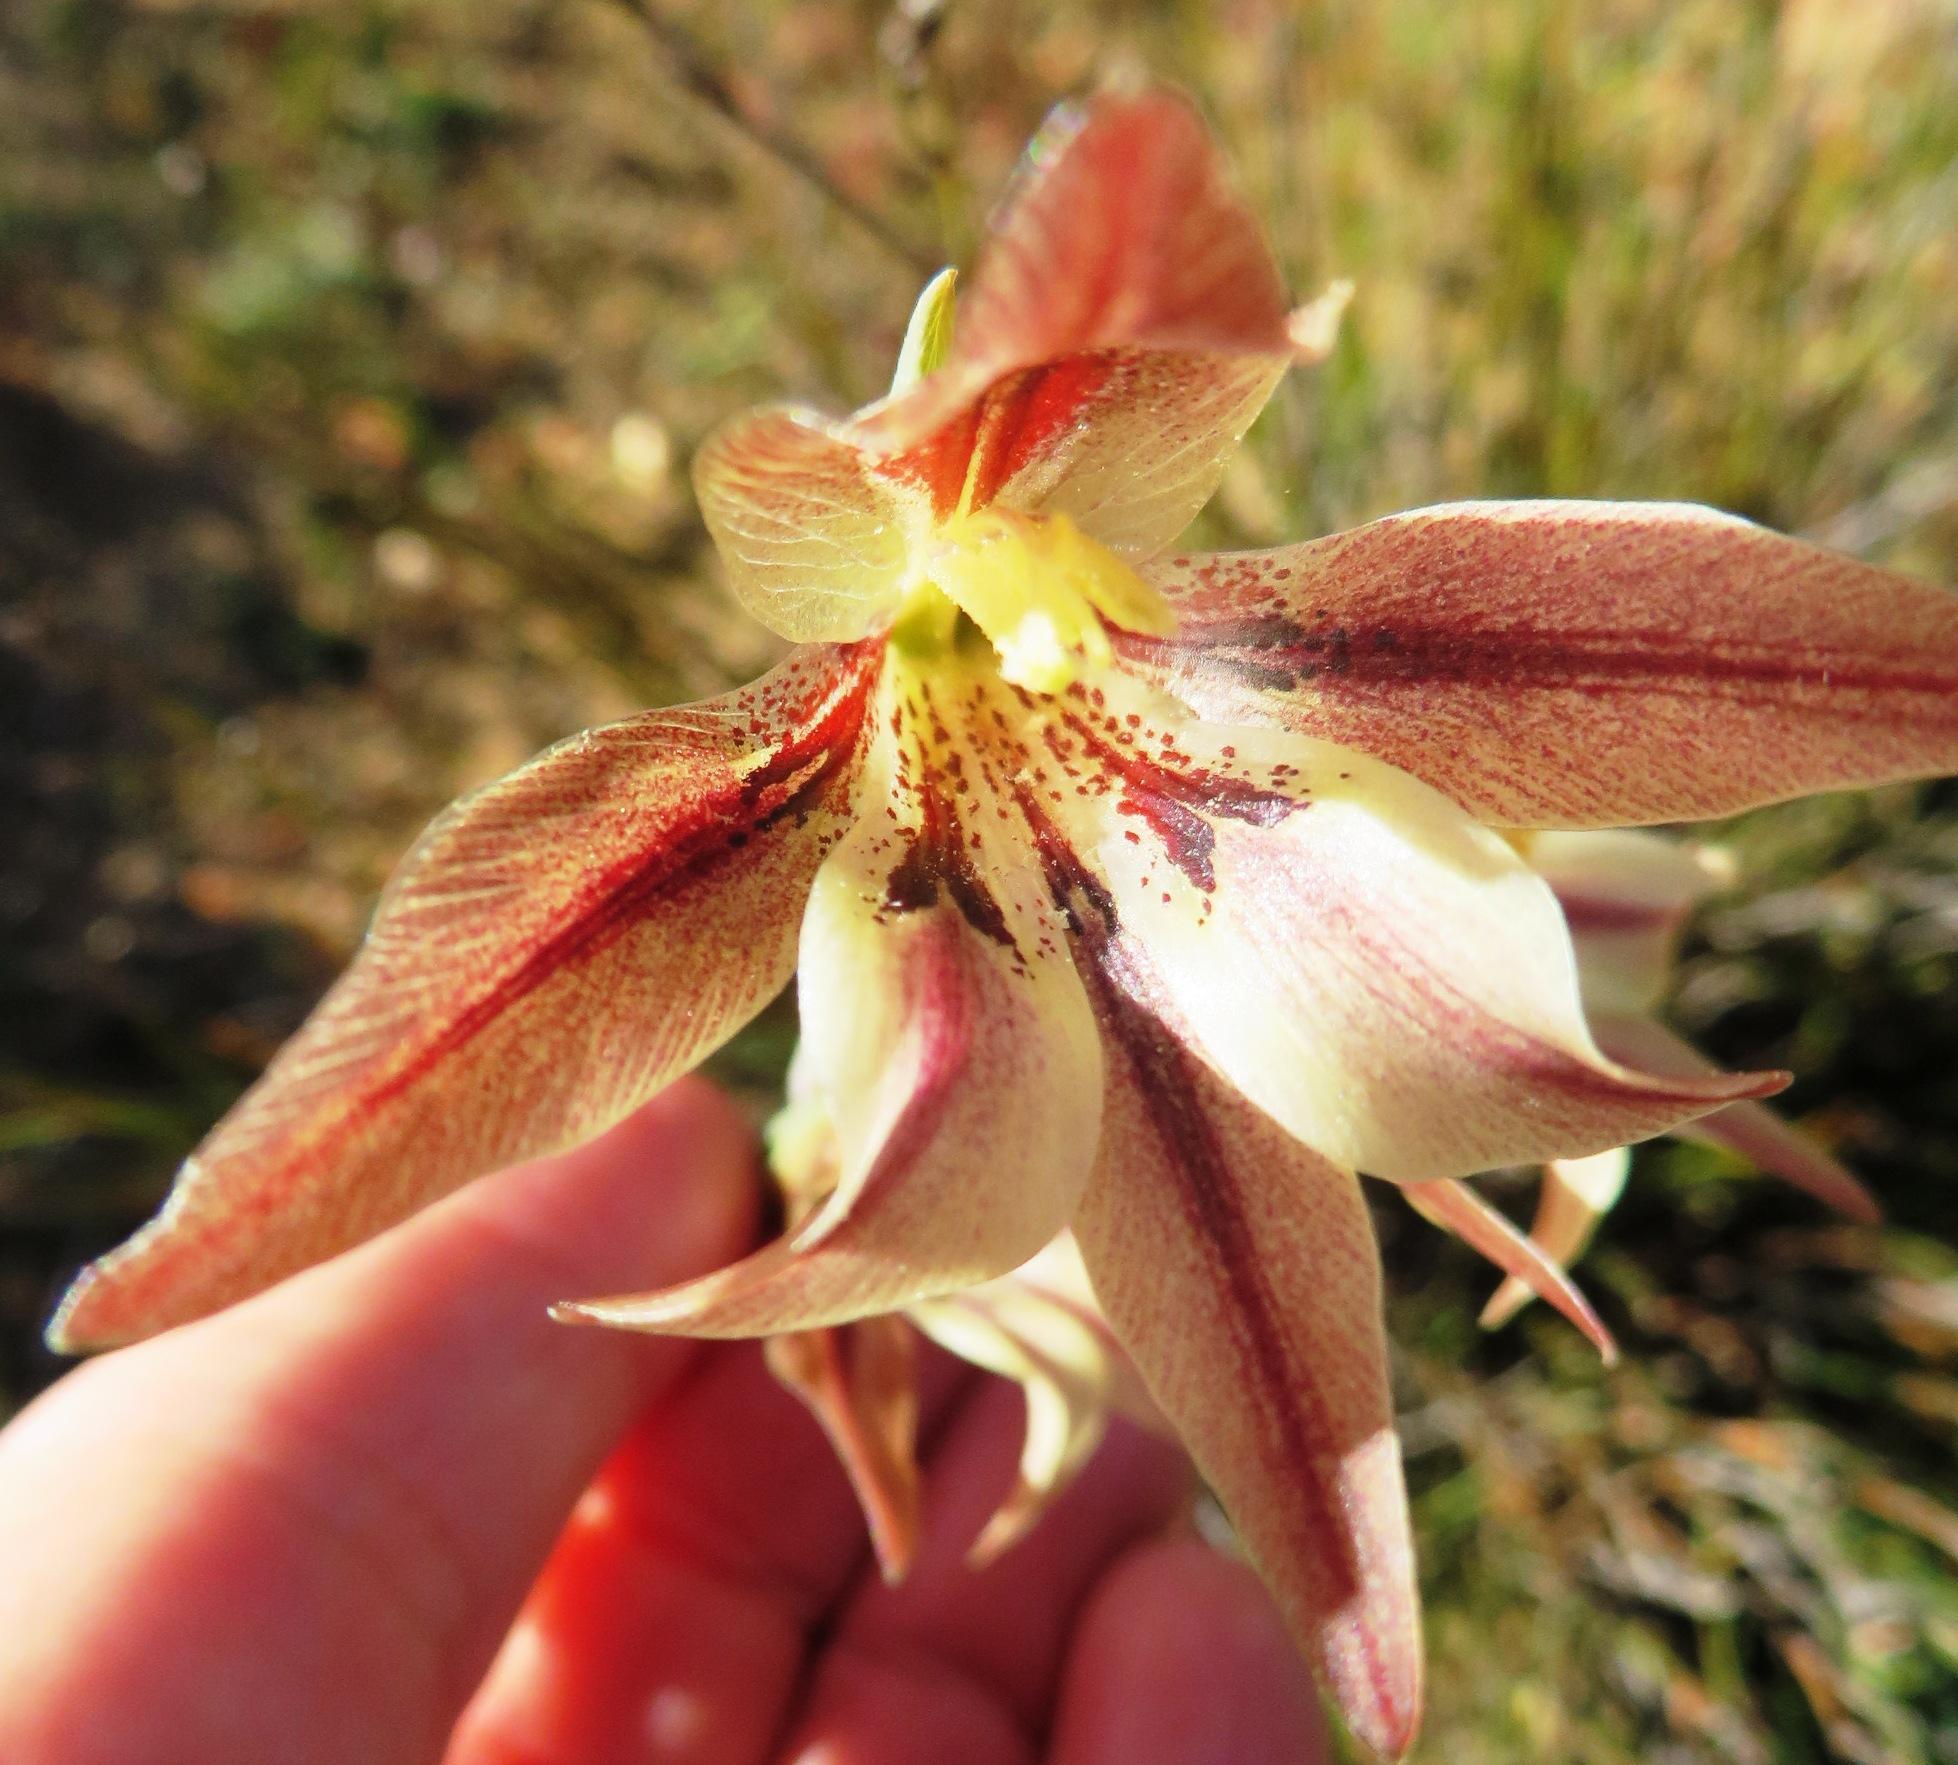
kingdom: Plantae
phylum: Tracheophyta
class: Liliopsida
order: Asparagales
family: Iridaceae
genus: Gladiolus
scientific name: Gladiolus hyalinus
